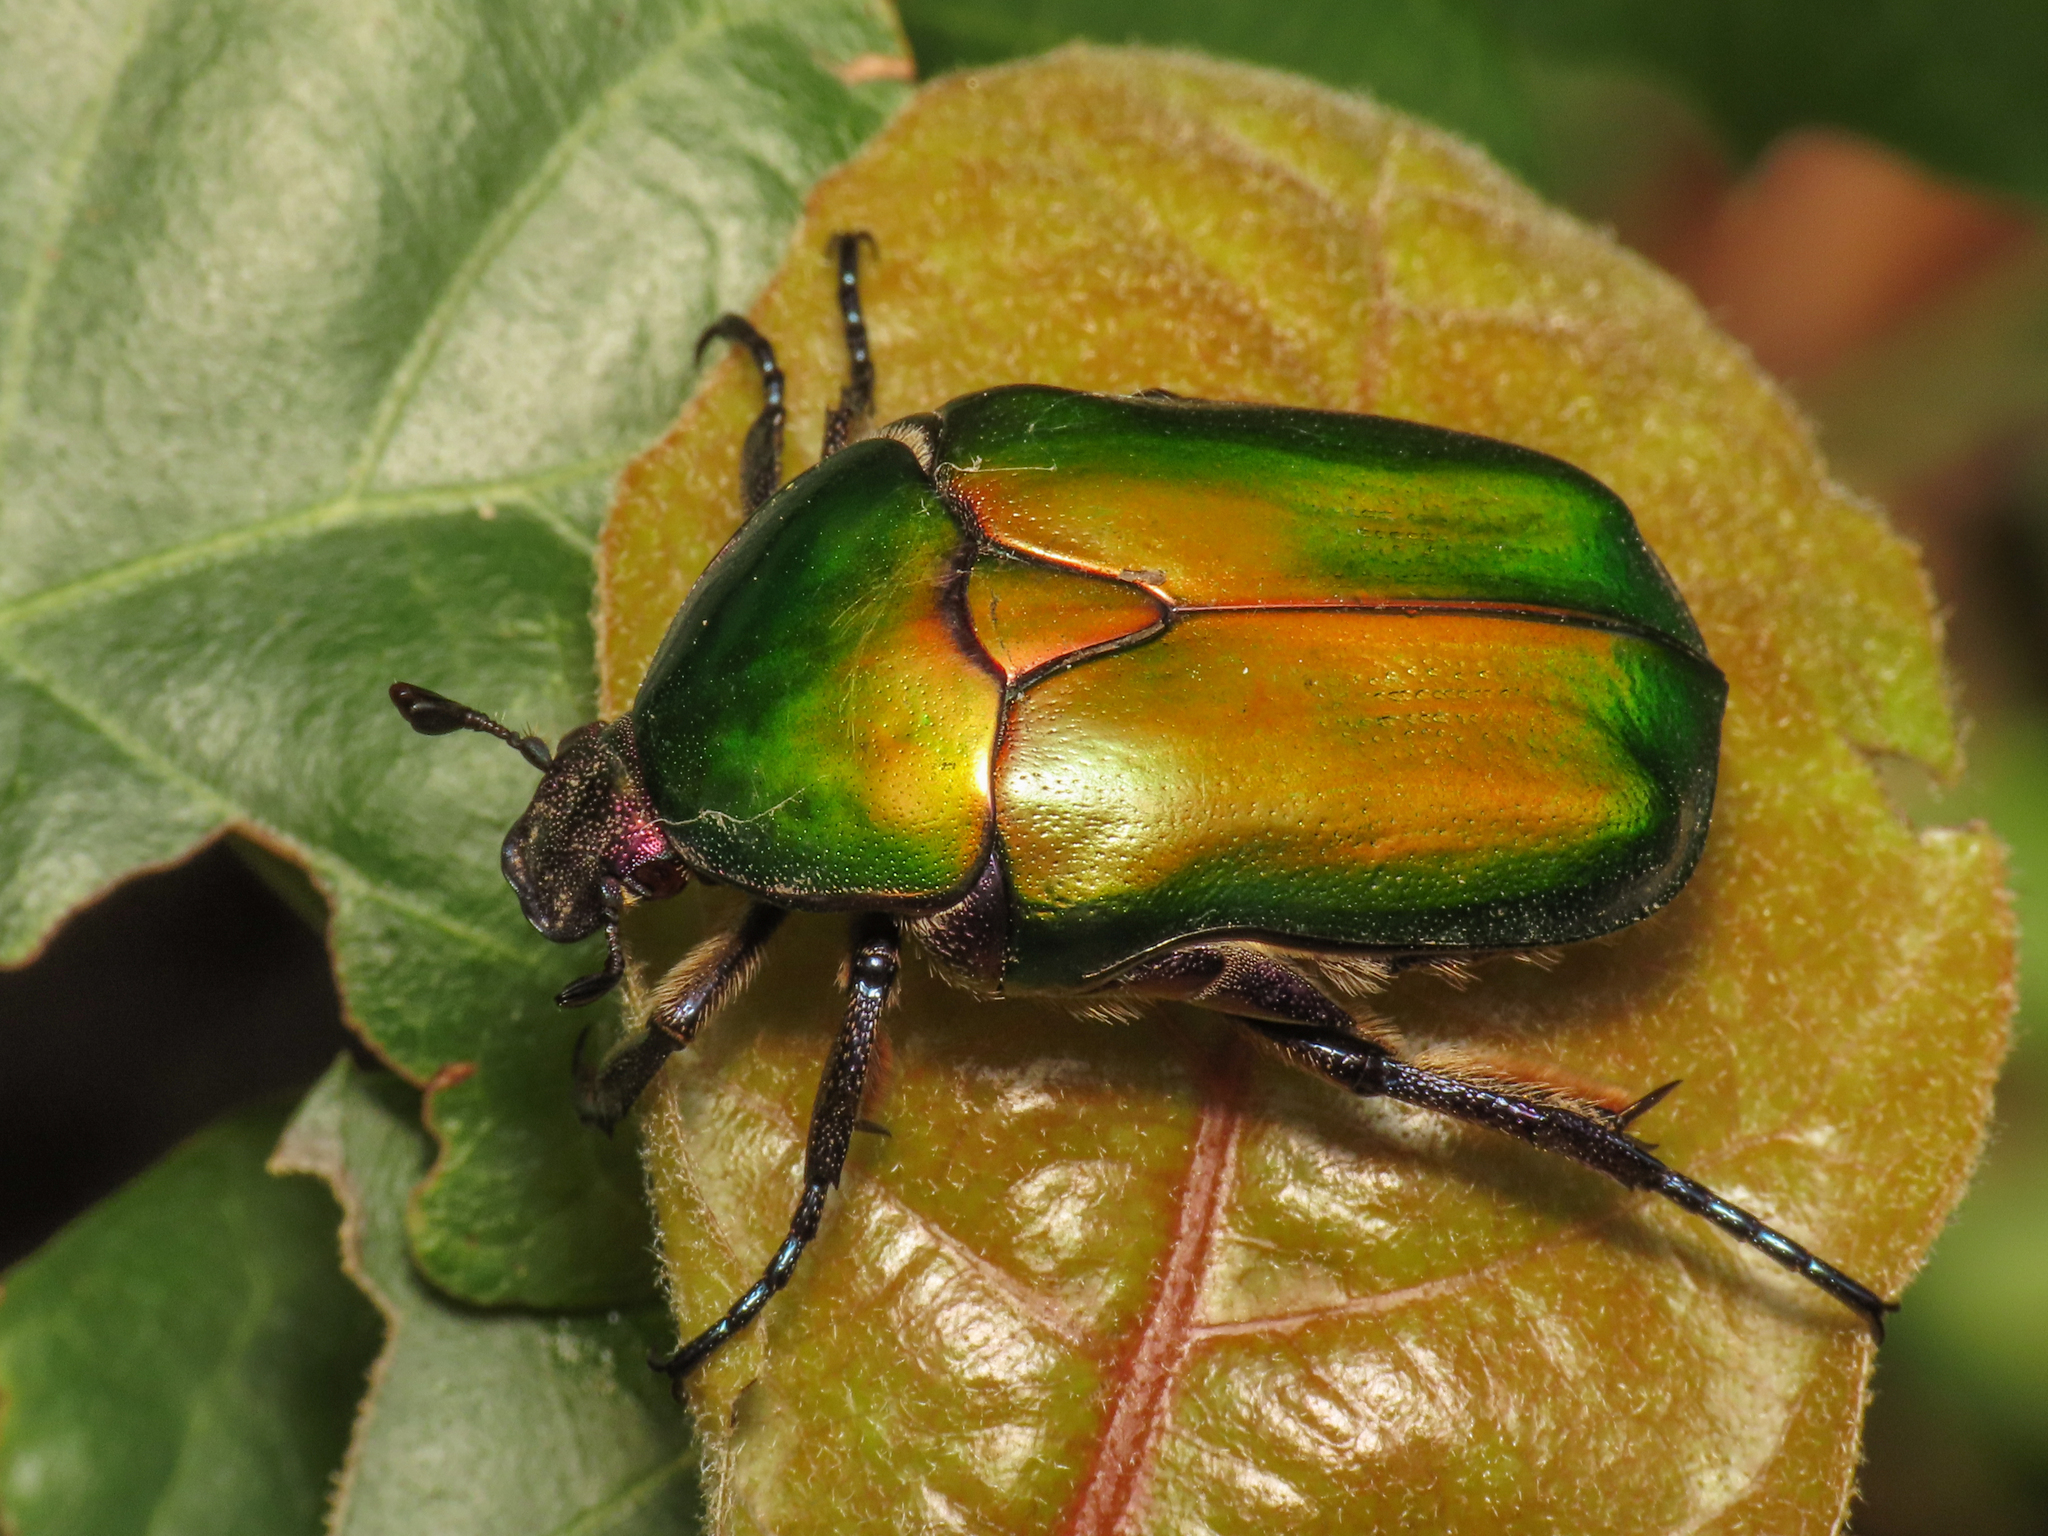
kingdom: Animalia
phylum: Arthropoda
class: Insecta
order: Coleoptera
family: Scarabaeidae
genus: Protaetia
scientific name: Protaetia cuprea
